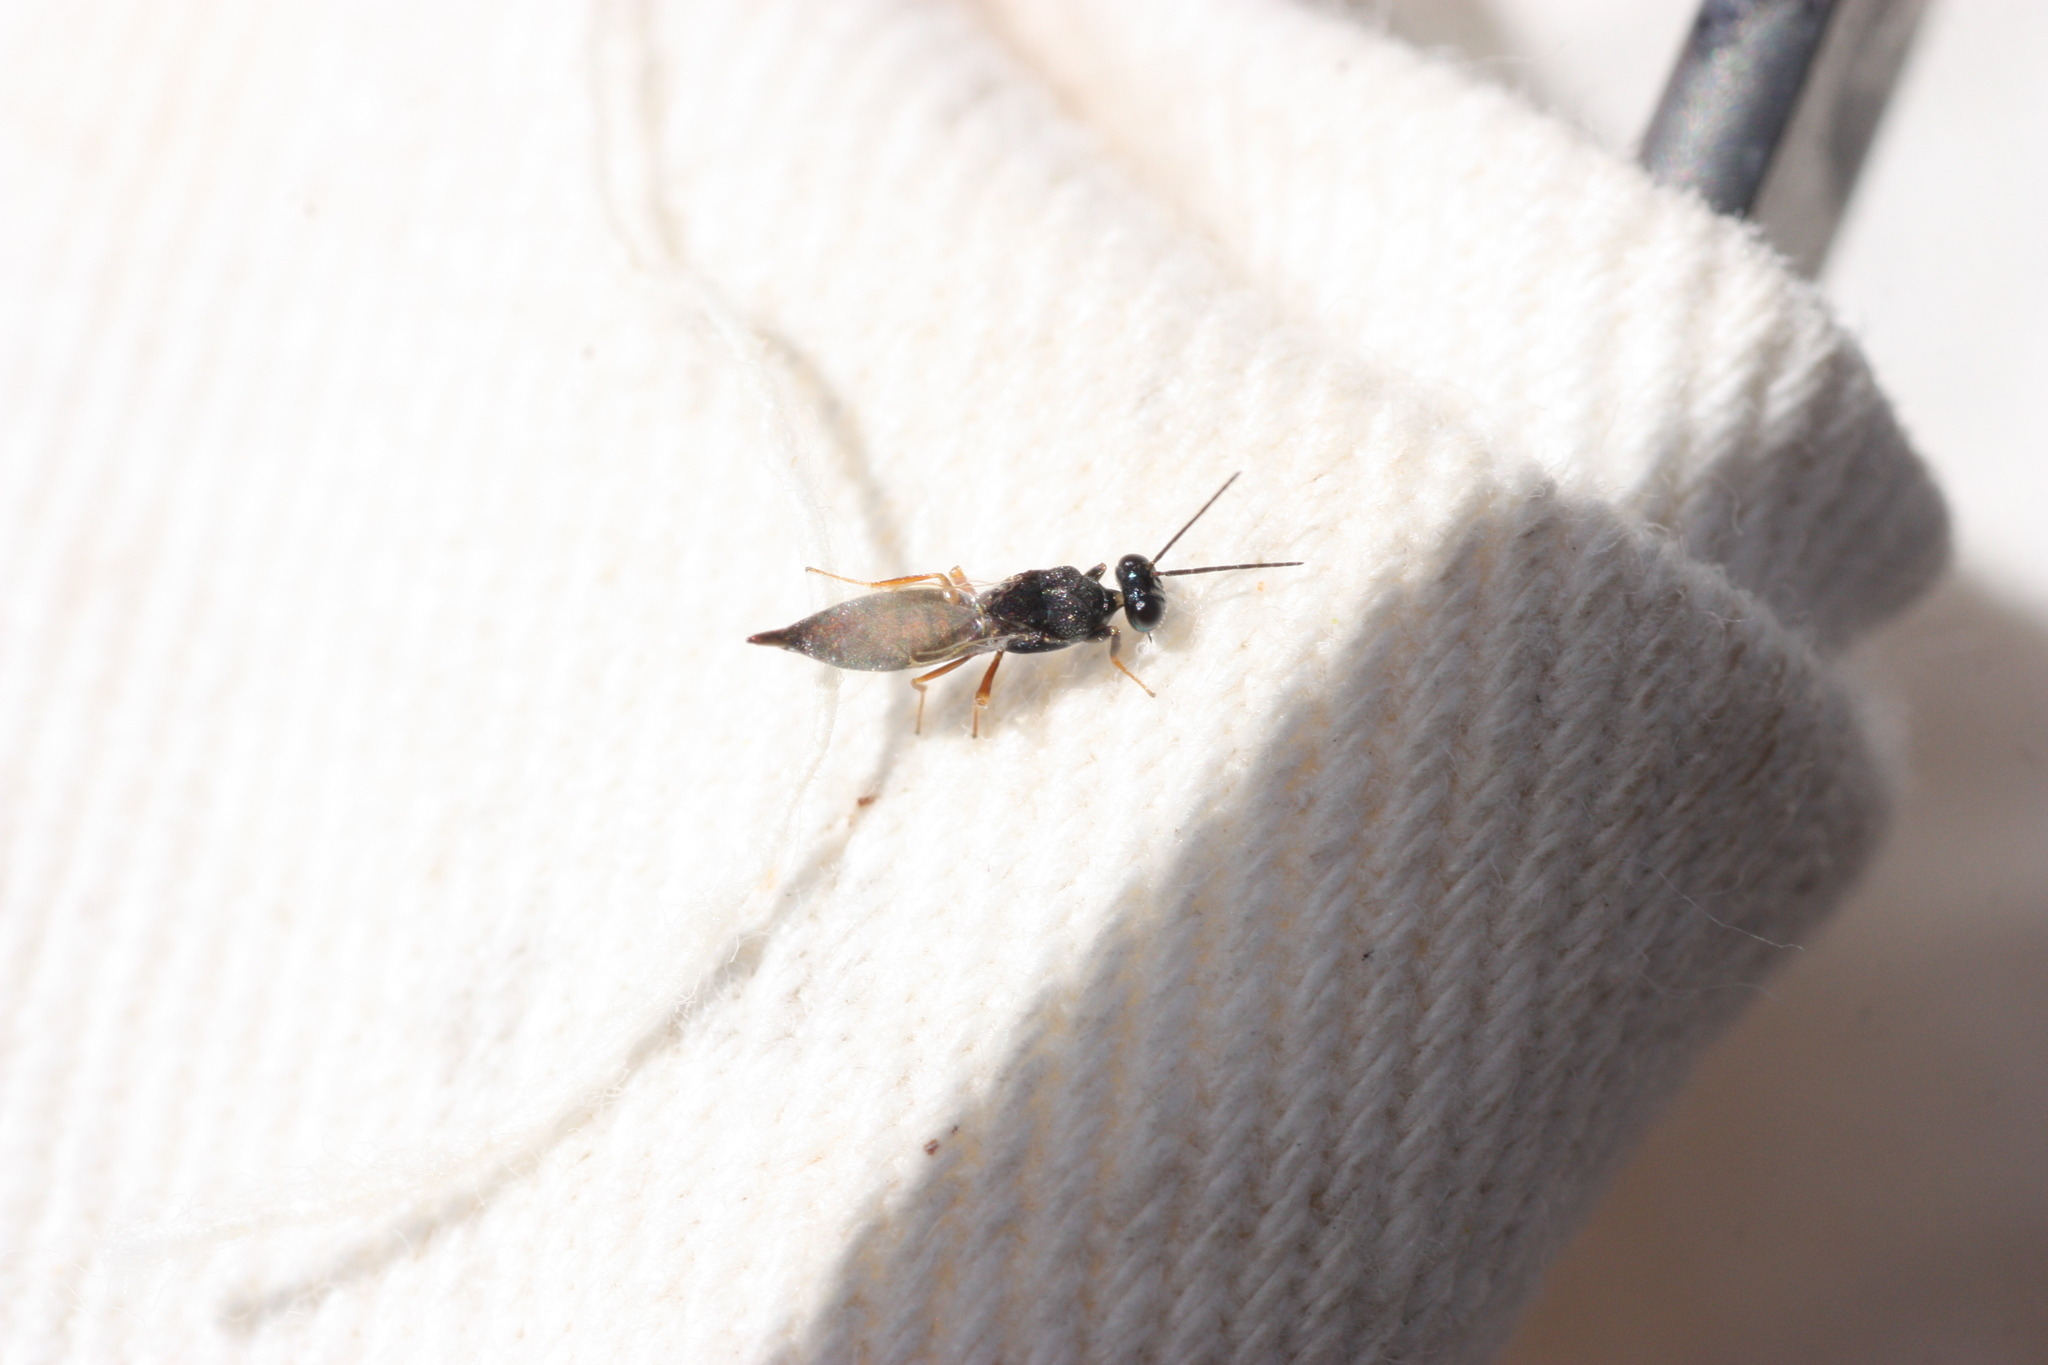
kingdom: Animalia
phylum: Arthropoda
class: Insecta
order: Hymenoptera
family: Eupelmidae
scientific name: Eupelmidae
